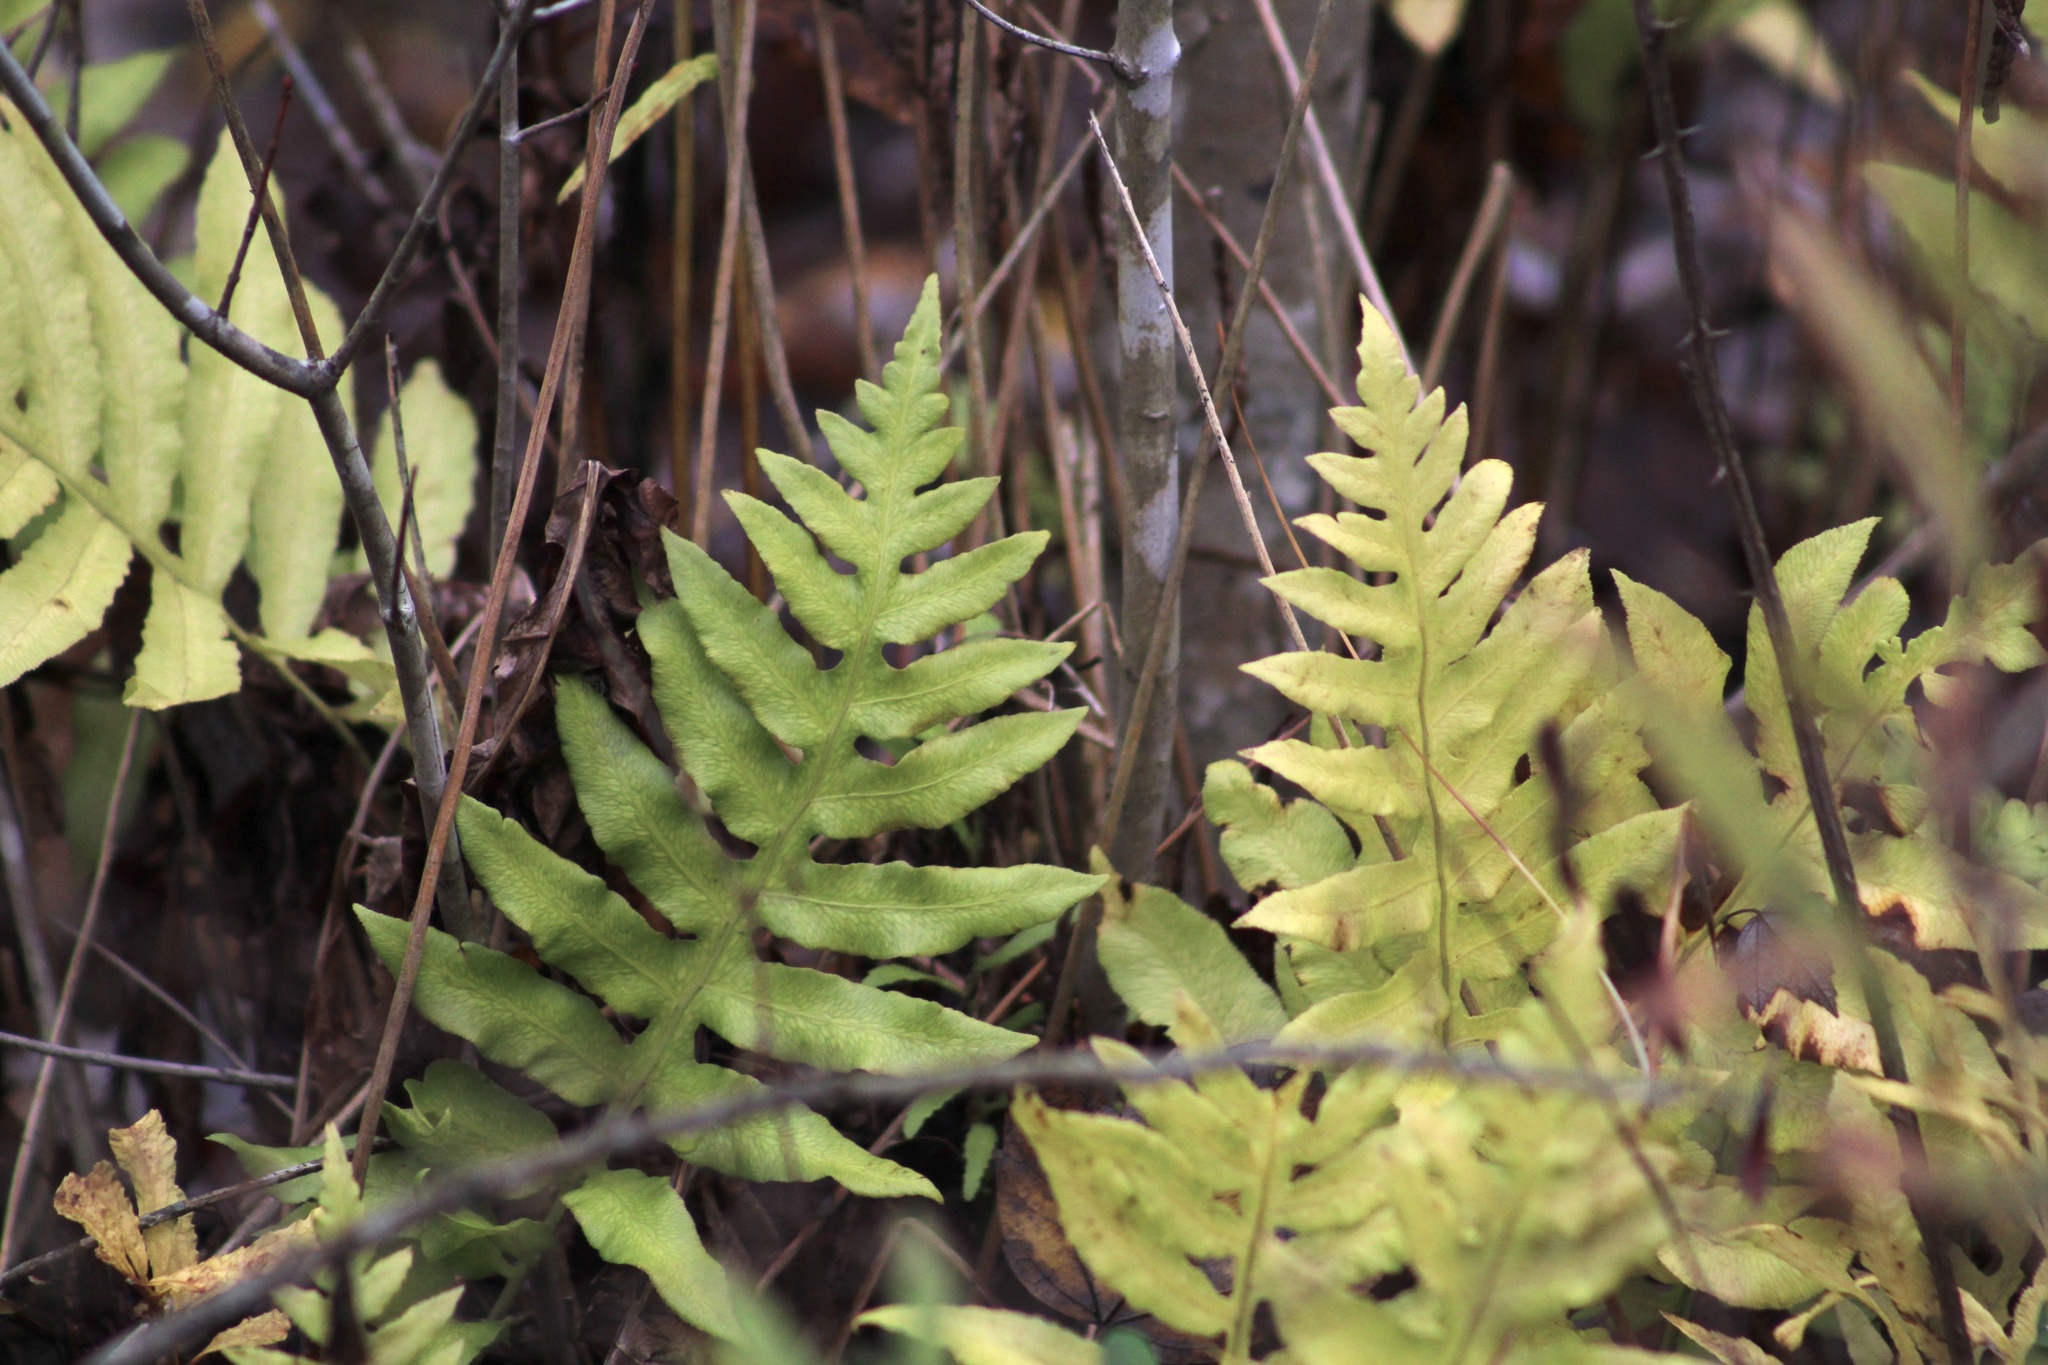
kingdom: Plantae
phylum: Tracheophyta
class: Polypodiopsida
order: Polypodiales
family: Blechnaceae
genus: Lorinseria
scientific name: Lorinseria areolata
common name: Dwarf chain fern
